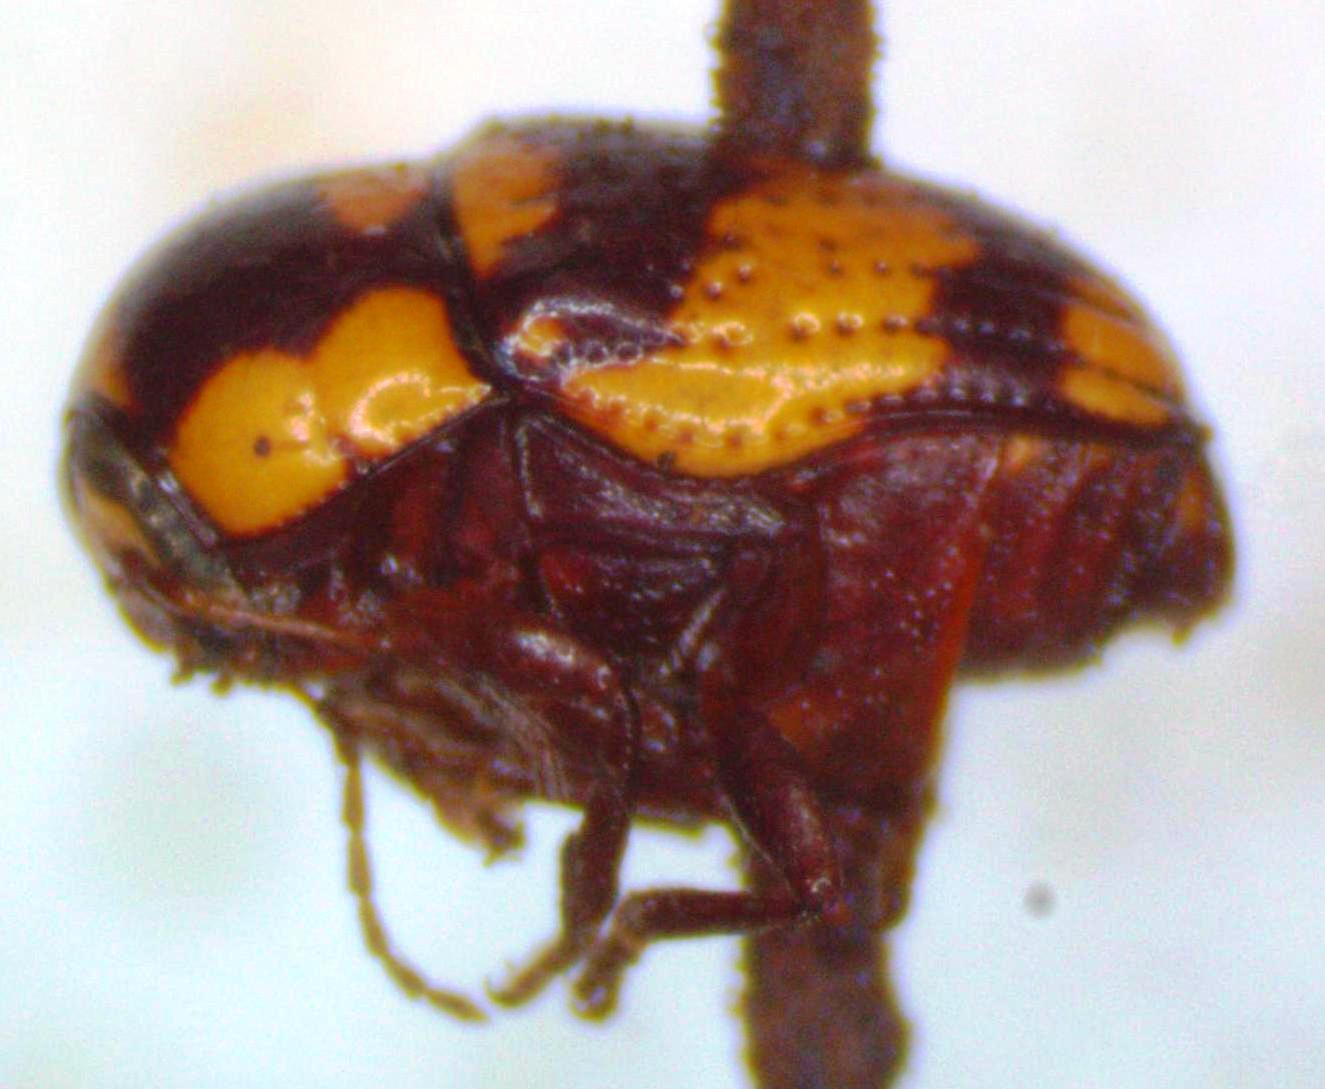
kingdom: Animalia
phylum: Arthropoda
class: Insecta
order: Coleoptera
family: Chrysomelidae
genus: Cryptocephalus
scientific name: Cryptocephalus trizonatus
